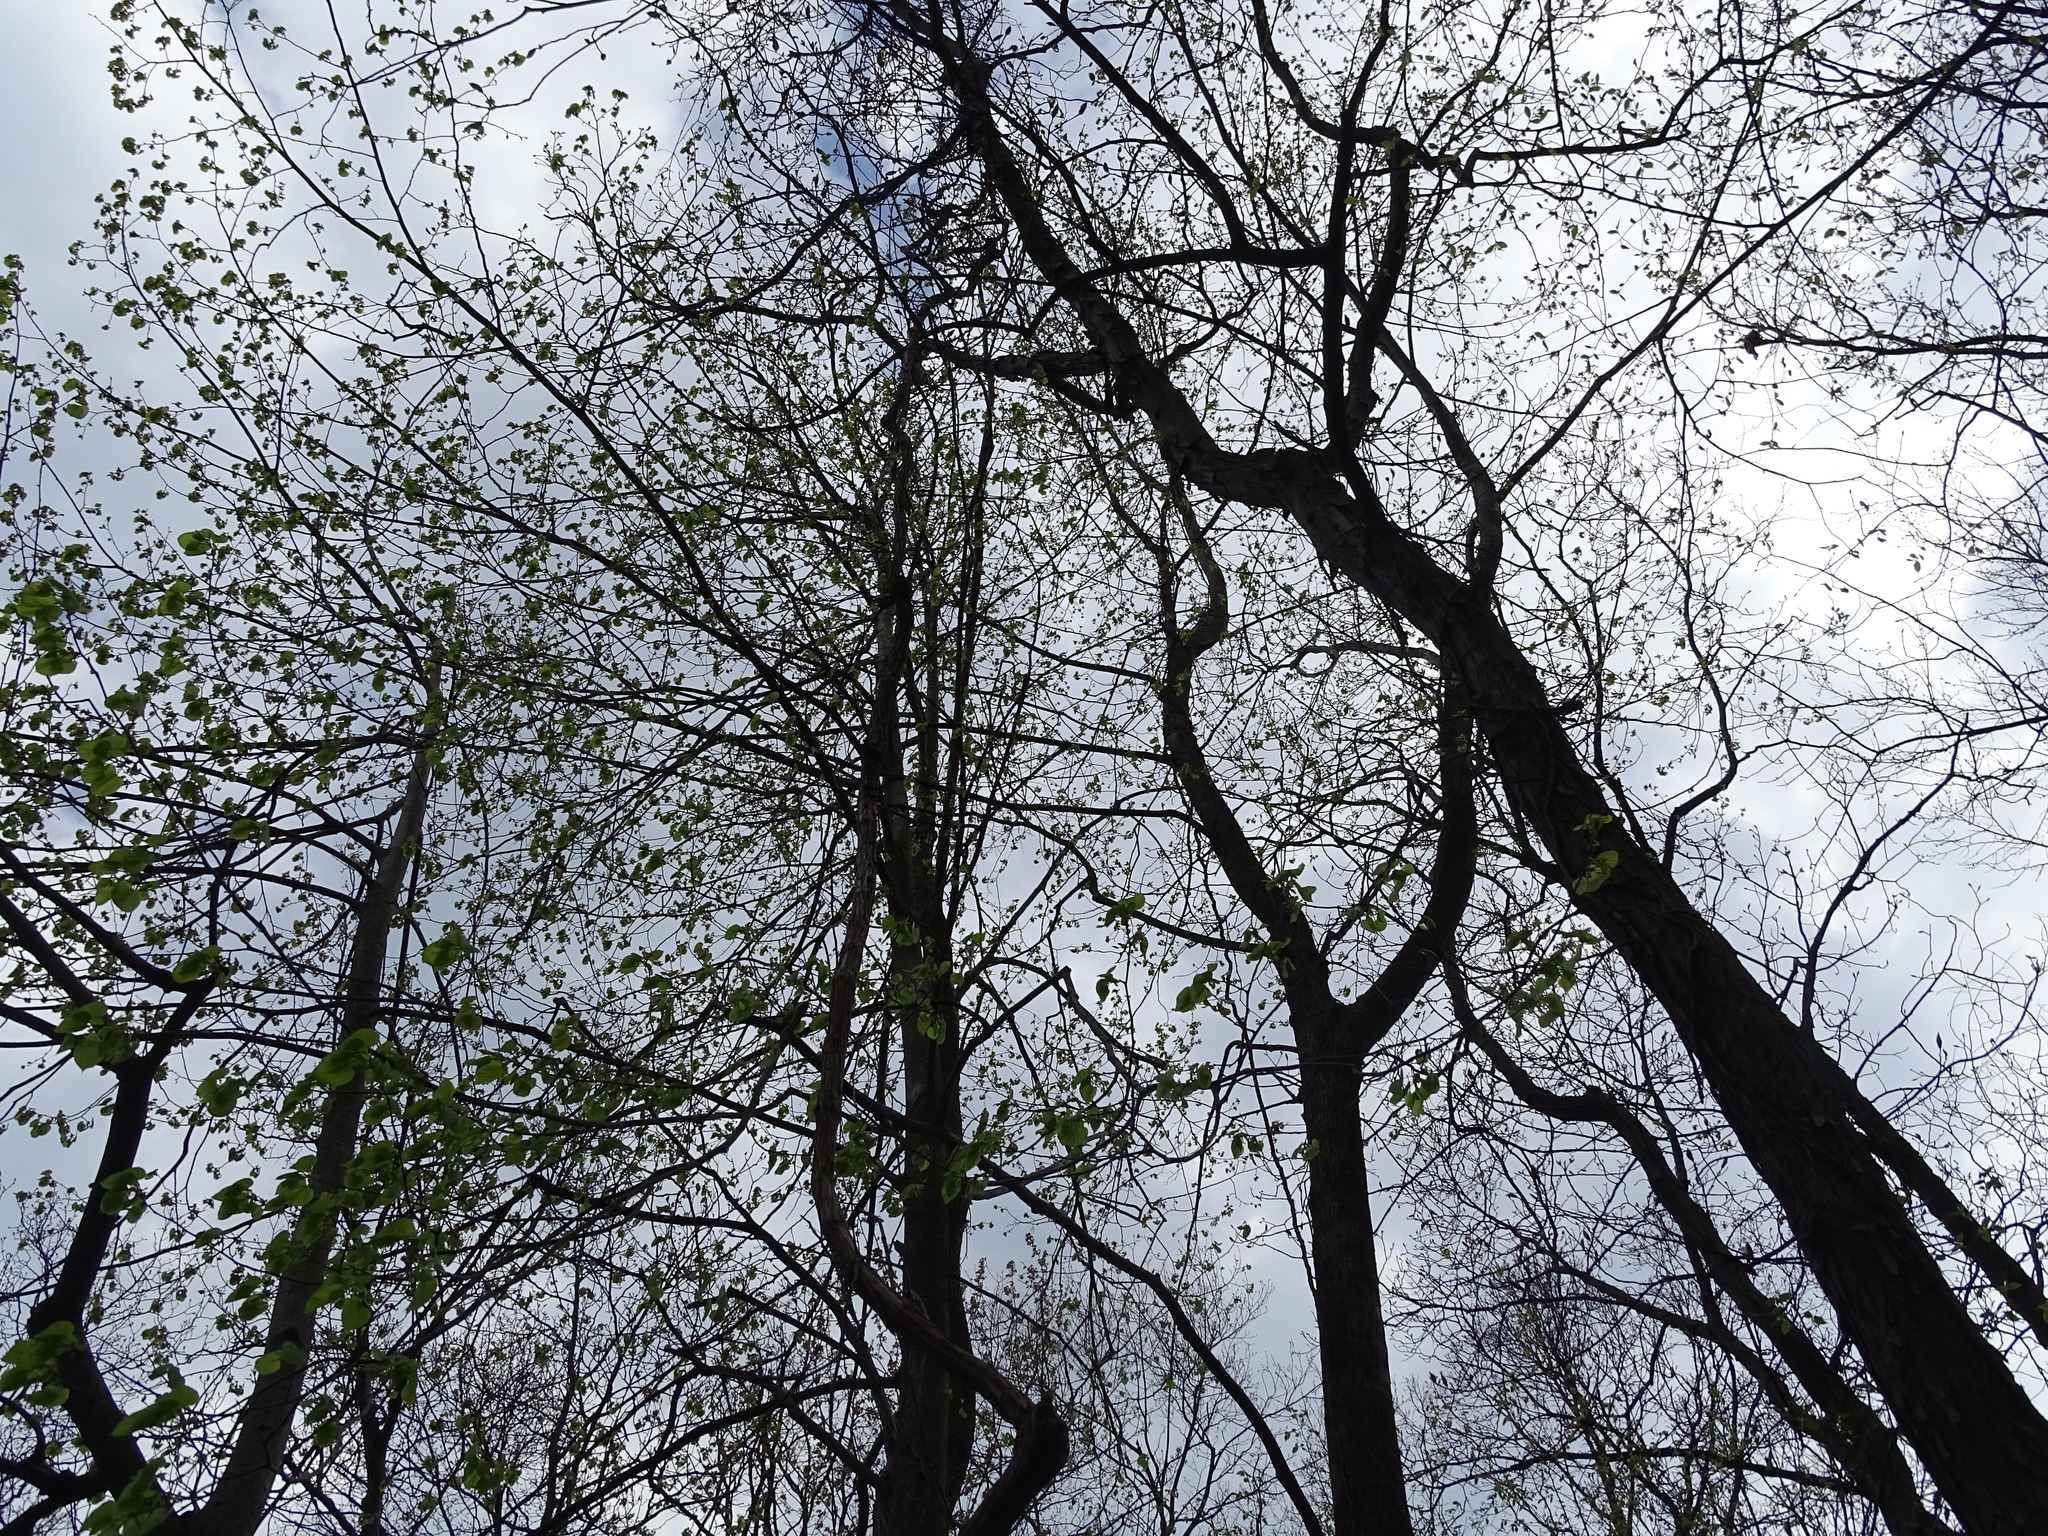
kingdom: Plantae
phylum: Tracheophyta
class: Magnoliopsida
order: Malvales
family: Malvaceae
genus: Tilia
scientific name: Tilia americana
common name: Basswood
